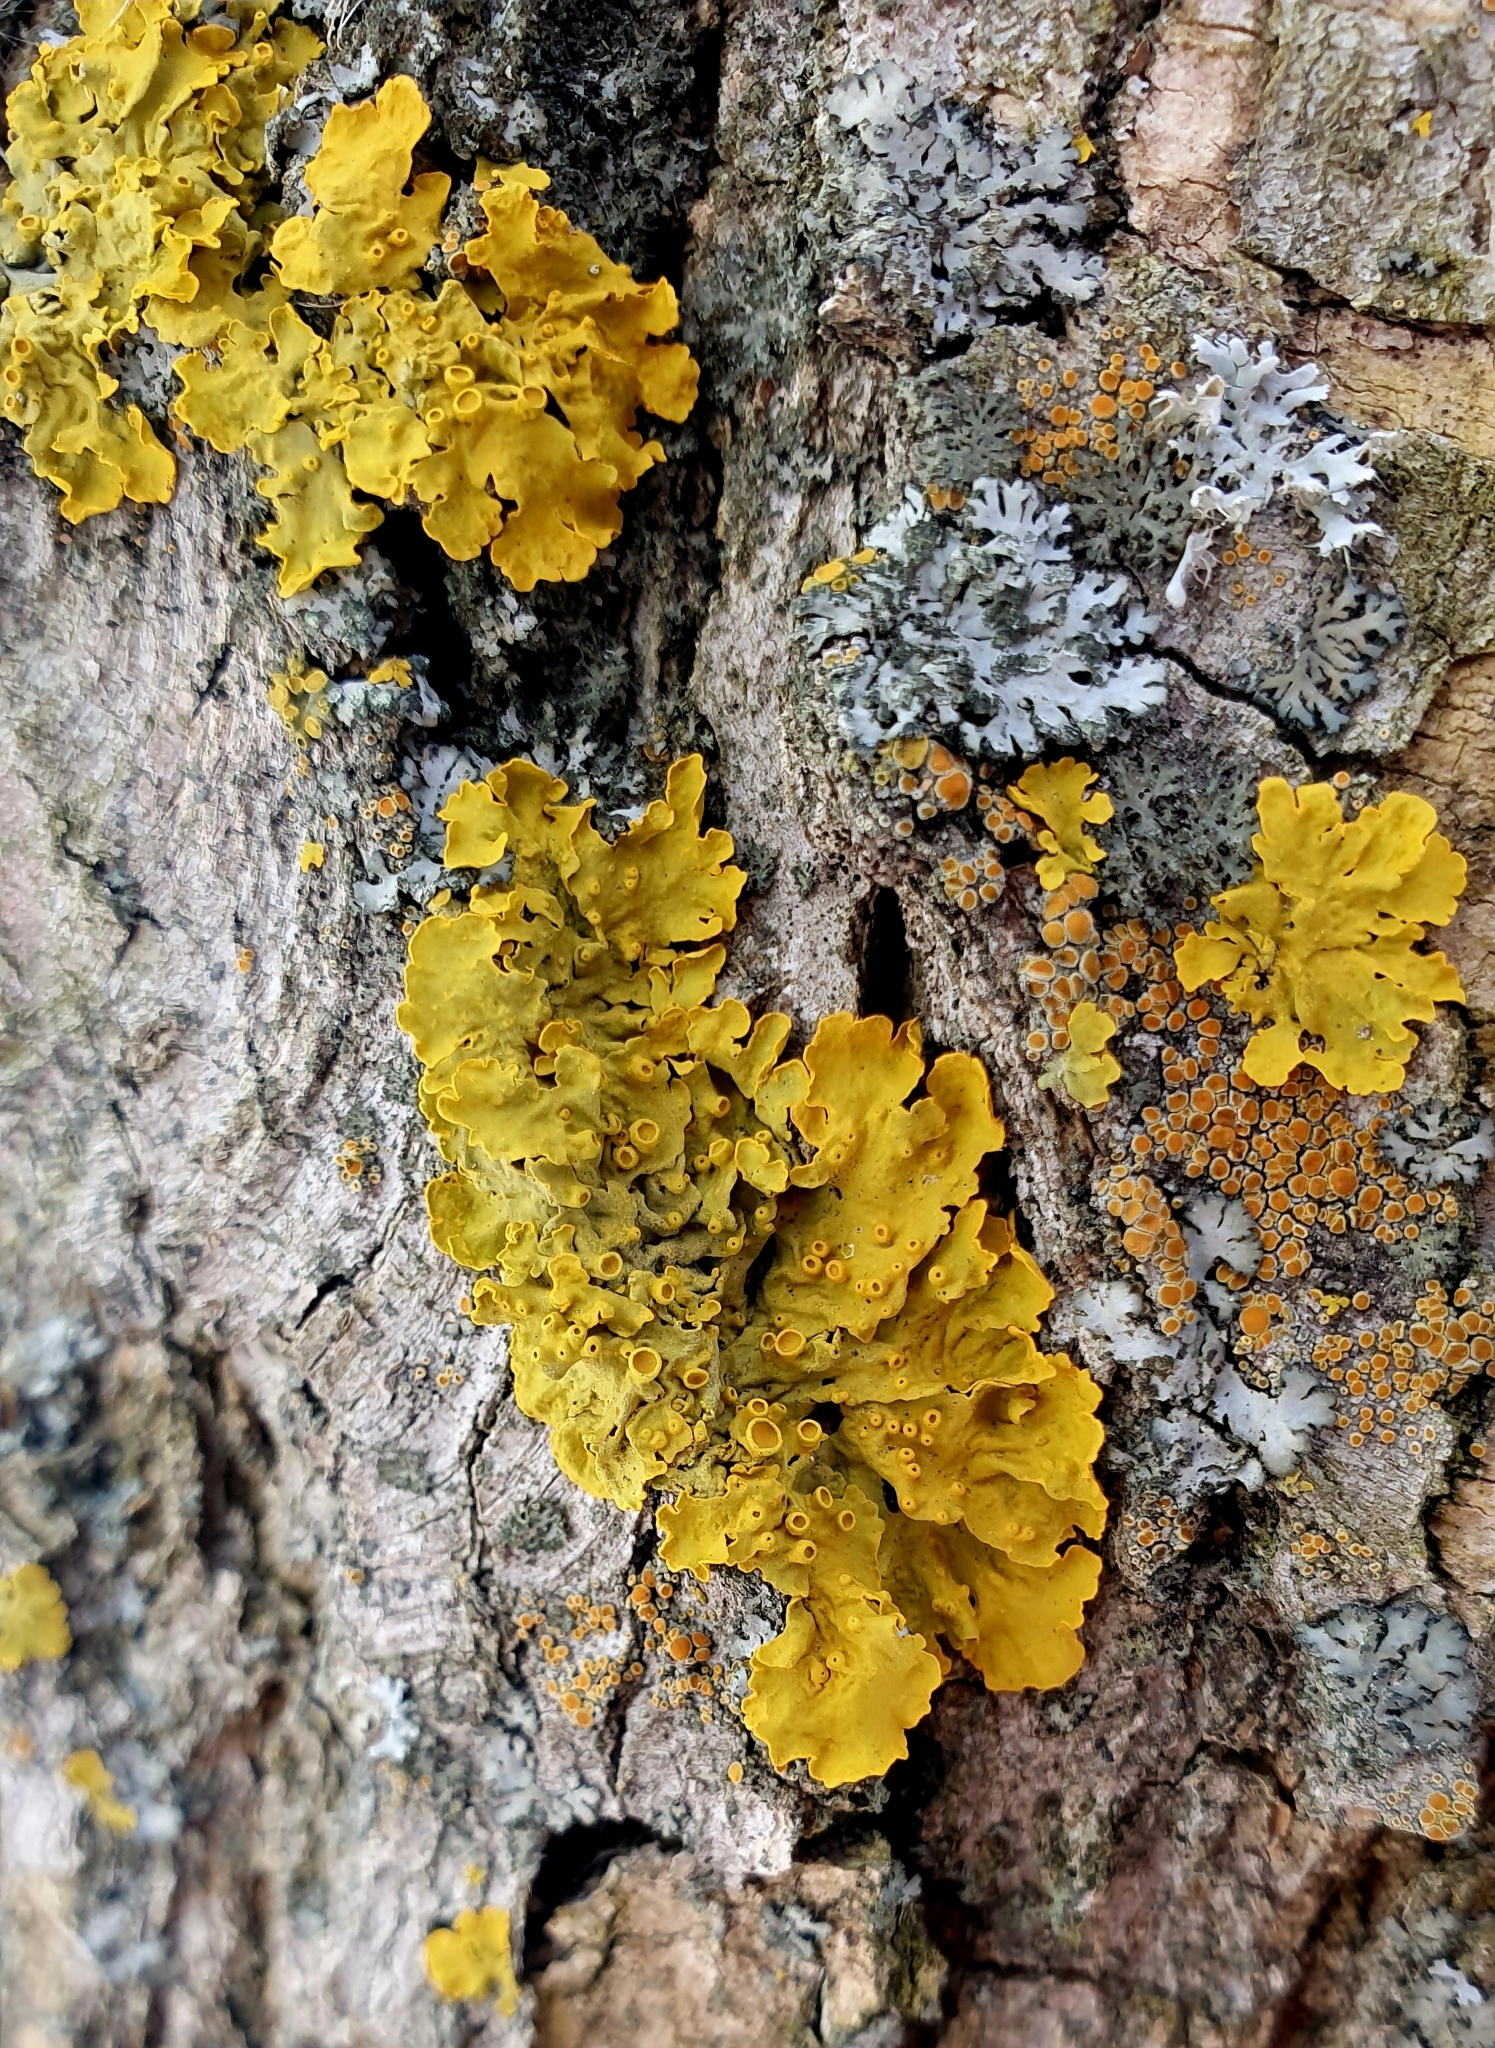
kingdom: Fungi
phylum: Ascomycota
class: Lecanoromycetes
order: Teloschistales
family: Teloschistaceae
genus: Xanthoria
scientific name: Xanthoria parietina
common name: Common orange lichen
